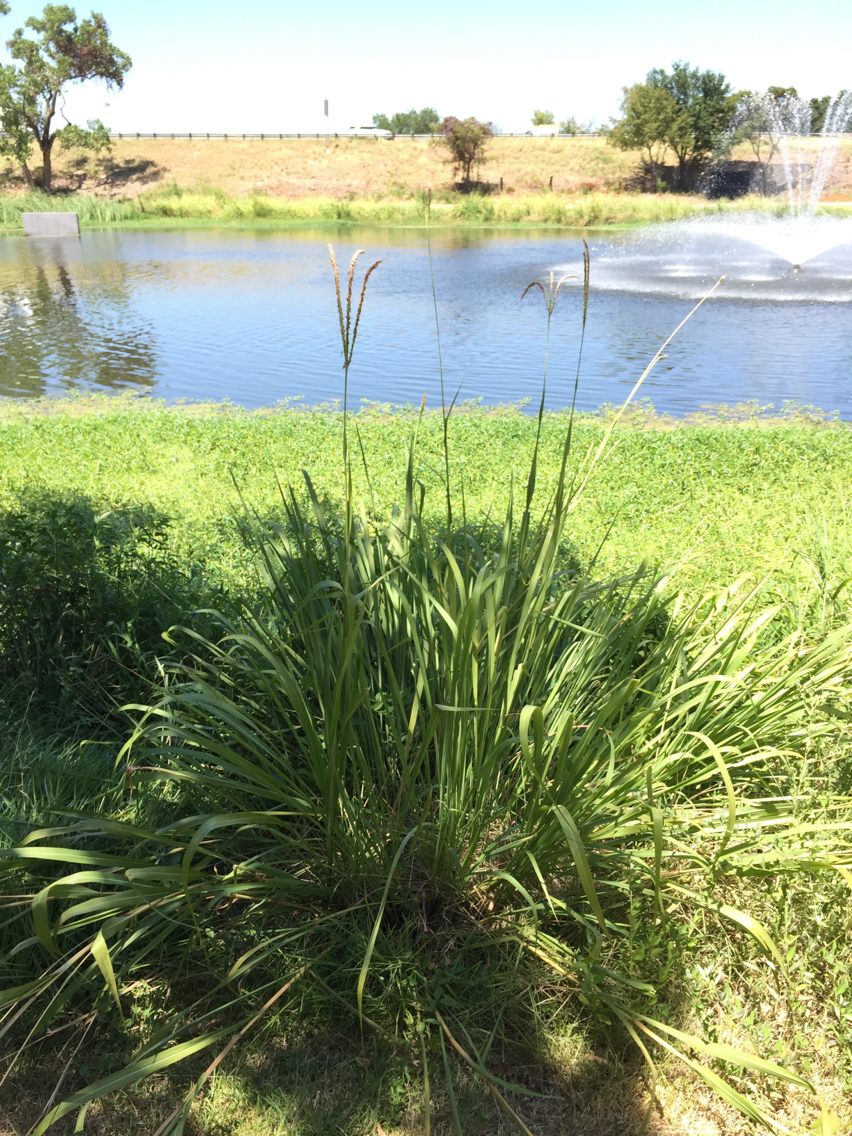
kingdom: Plantae
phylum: Tracheophyta
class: Liliopsida
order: Poales
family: Poaceae
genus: Tripsacum
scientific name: Tripsacum dactyloides
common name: Buffalo-grass
